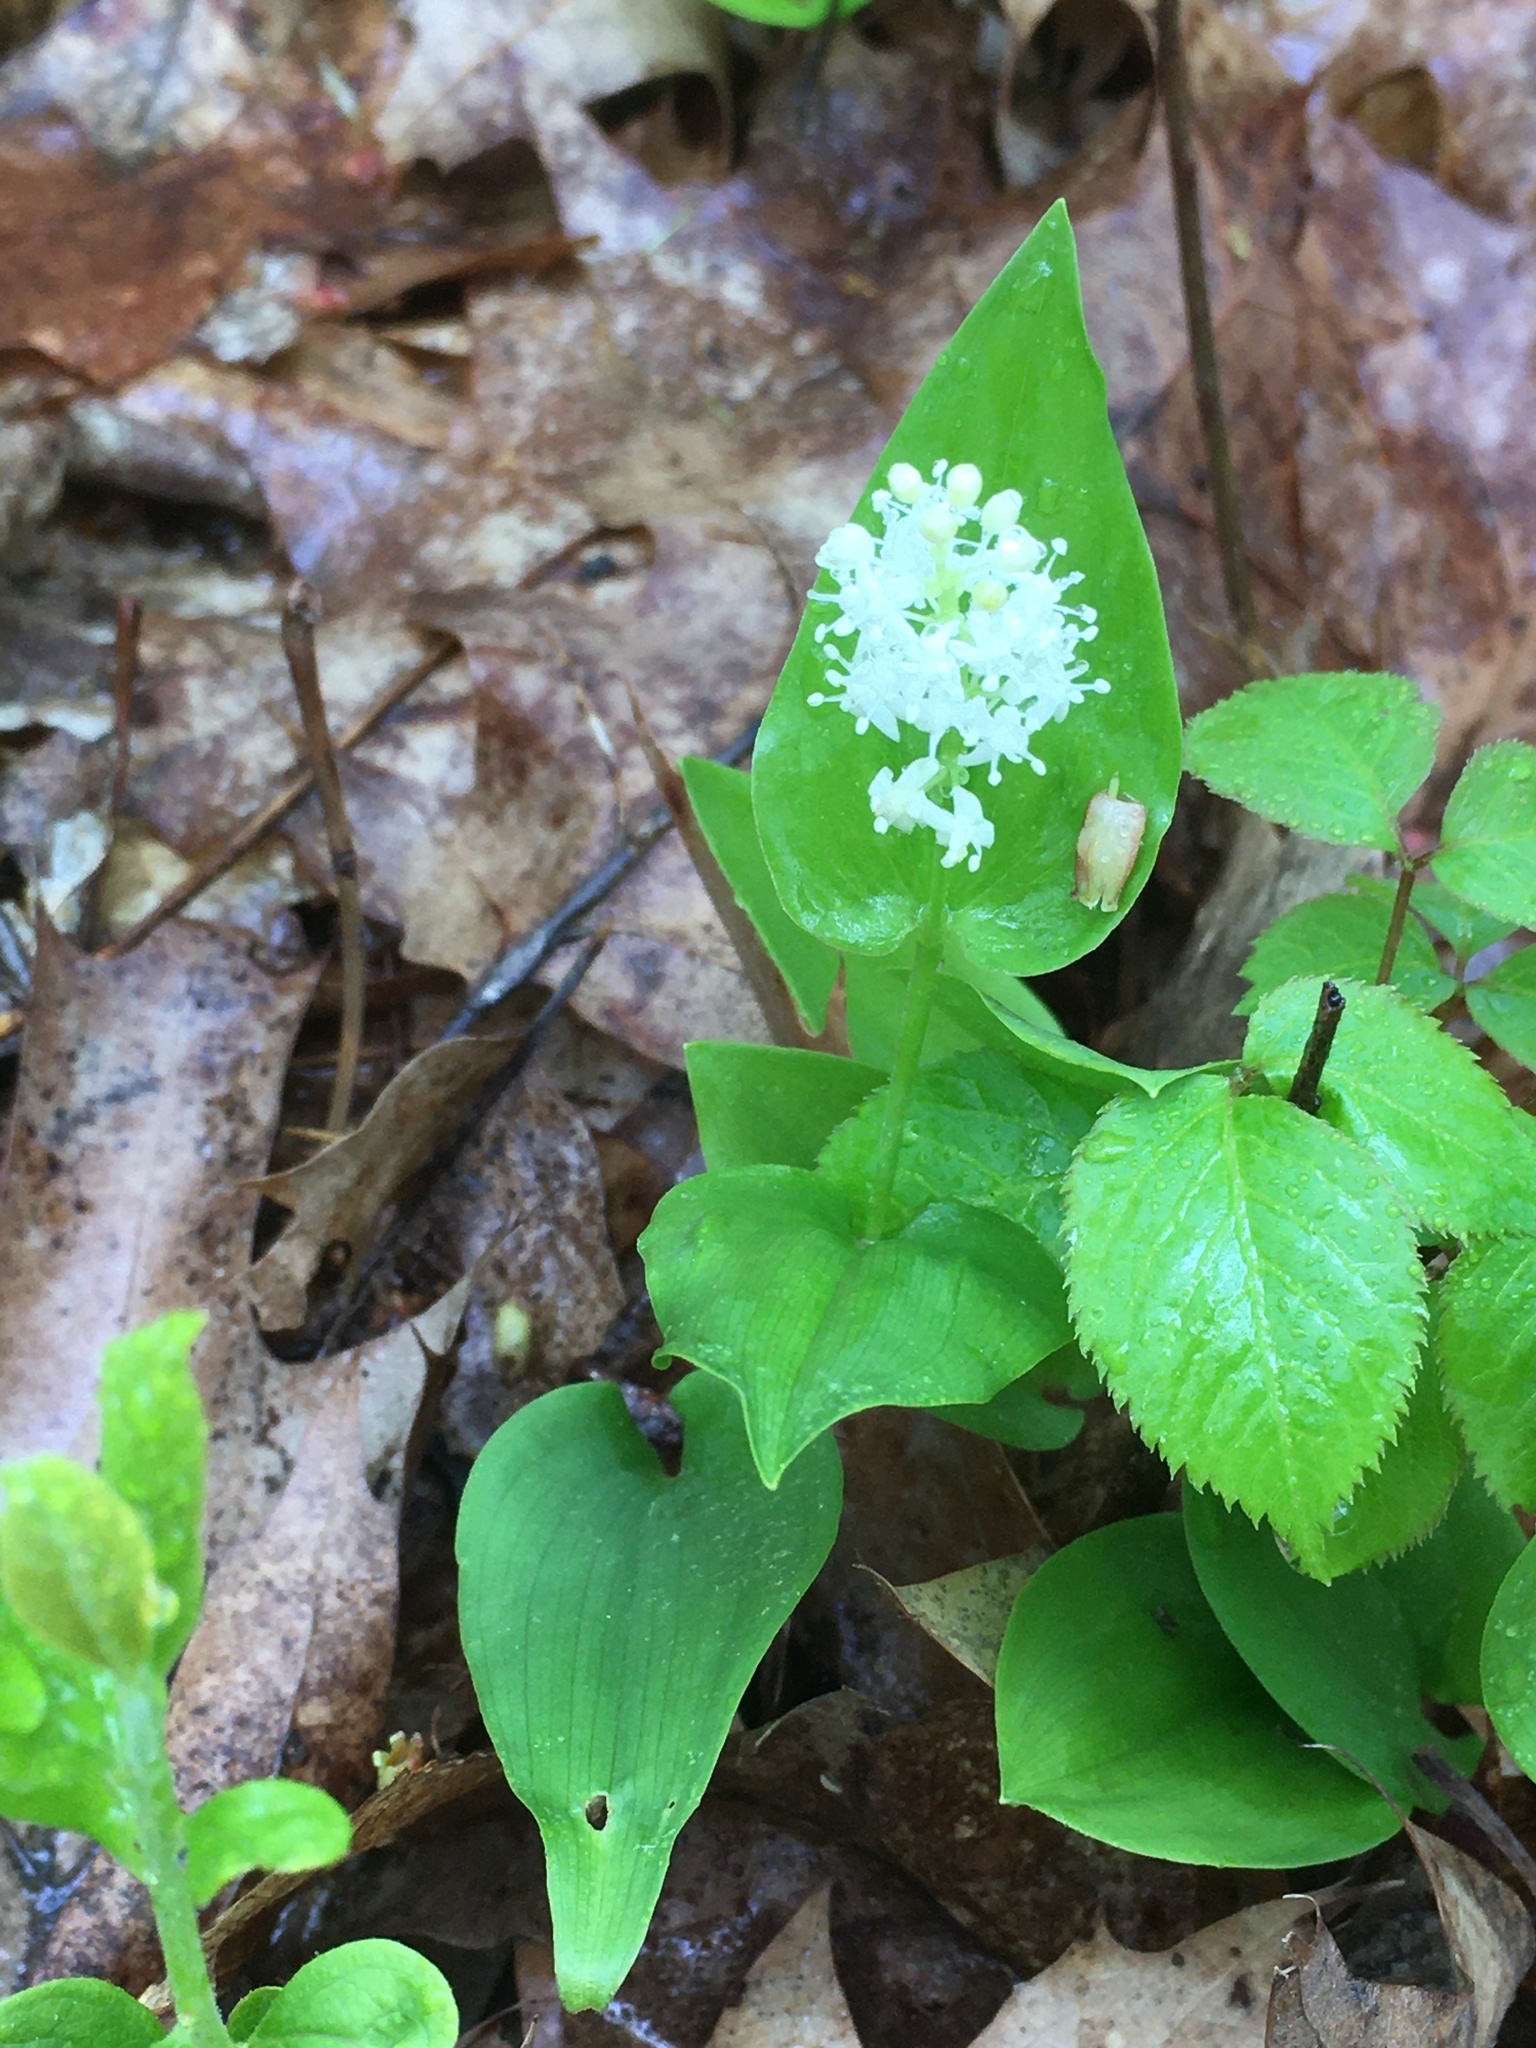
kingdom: Plantae
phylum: Tracheophyta
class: Liliopsida
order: Asparagales
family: Asparagaceae
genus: Maianthemum
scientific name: Maianthemum canadense
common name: False lily-of-the-valley
